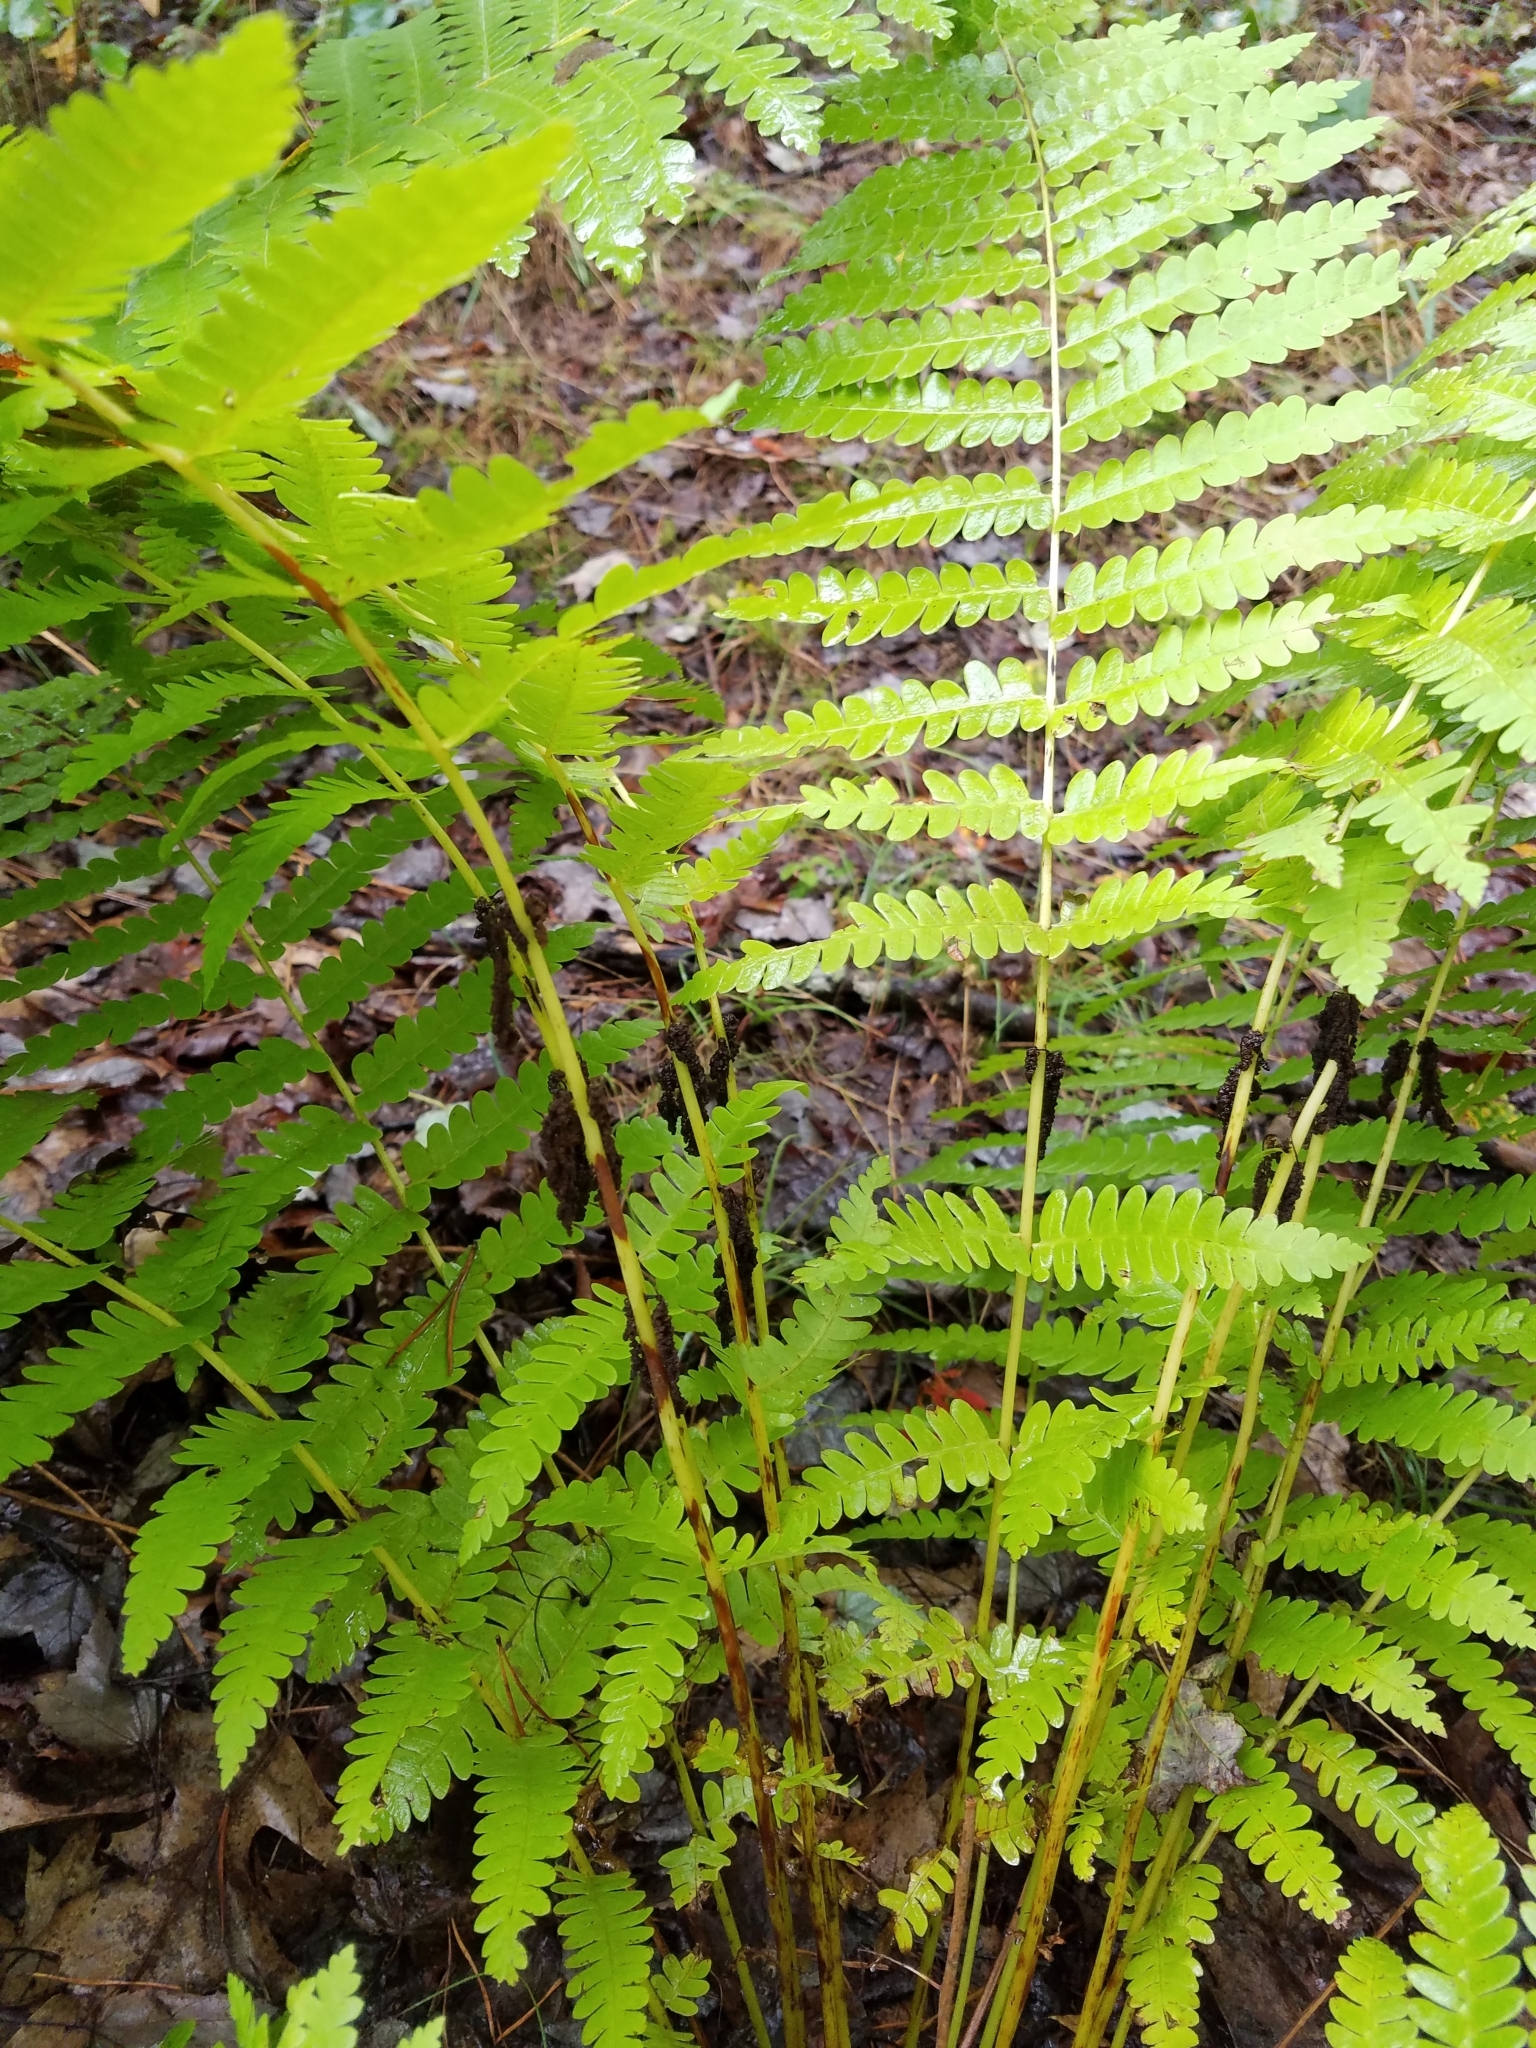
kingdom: Plantae
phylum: Tracheophyta
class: Polypodiopsida
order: Osmundales
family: Osmundaceae
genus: Claytosmunda
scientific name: Claytosmunda claytoniana
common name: Clayton's fern
